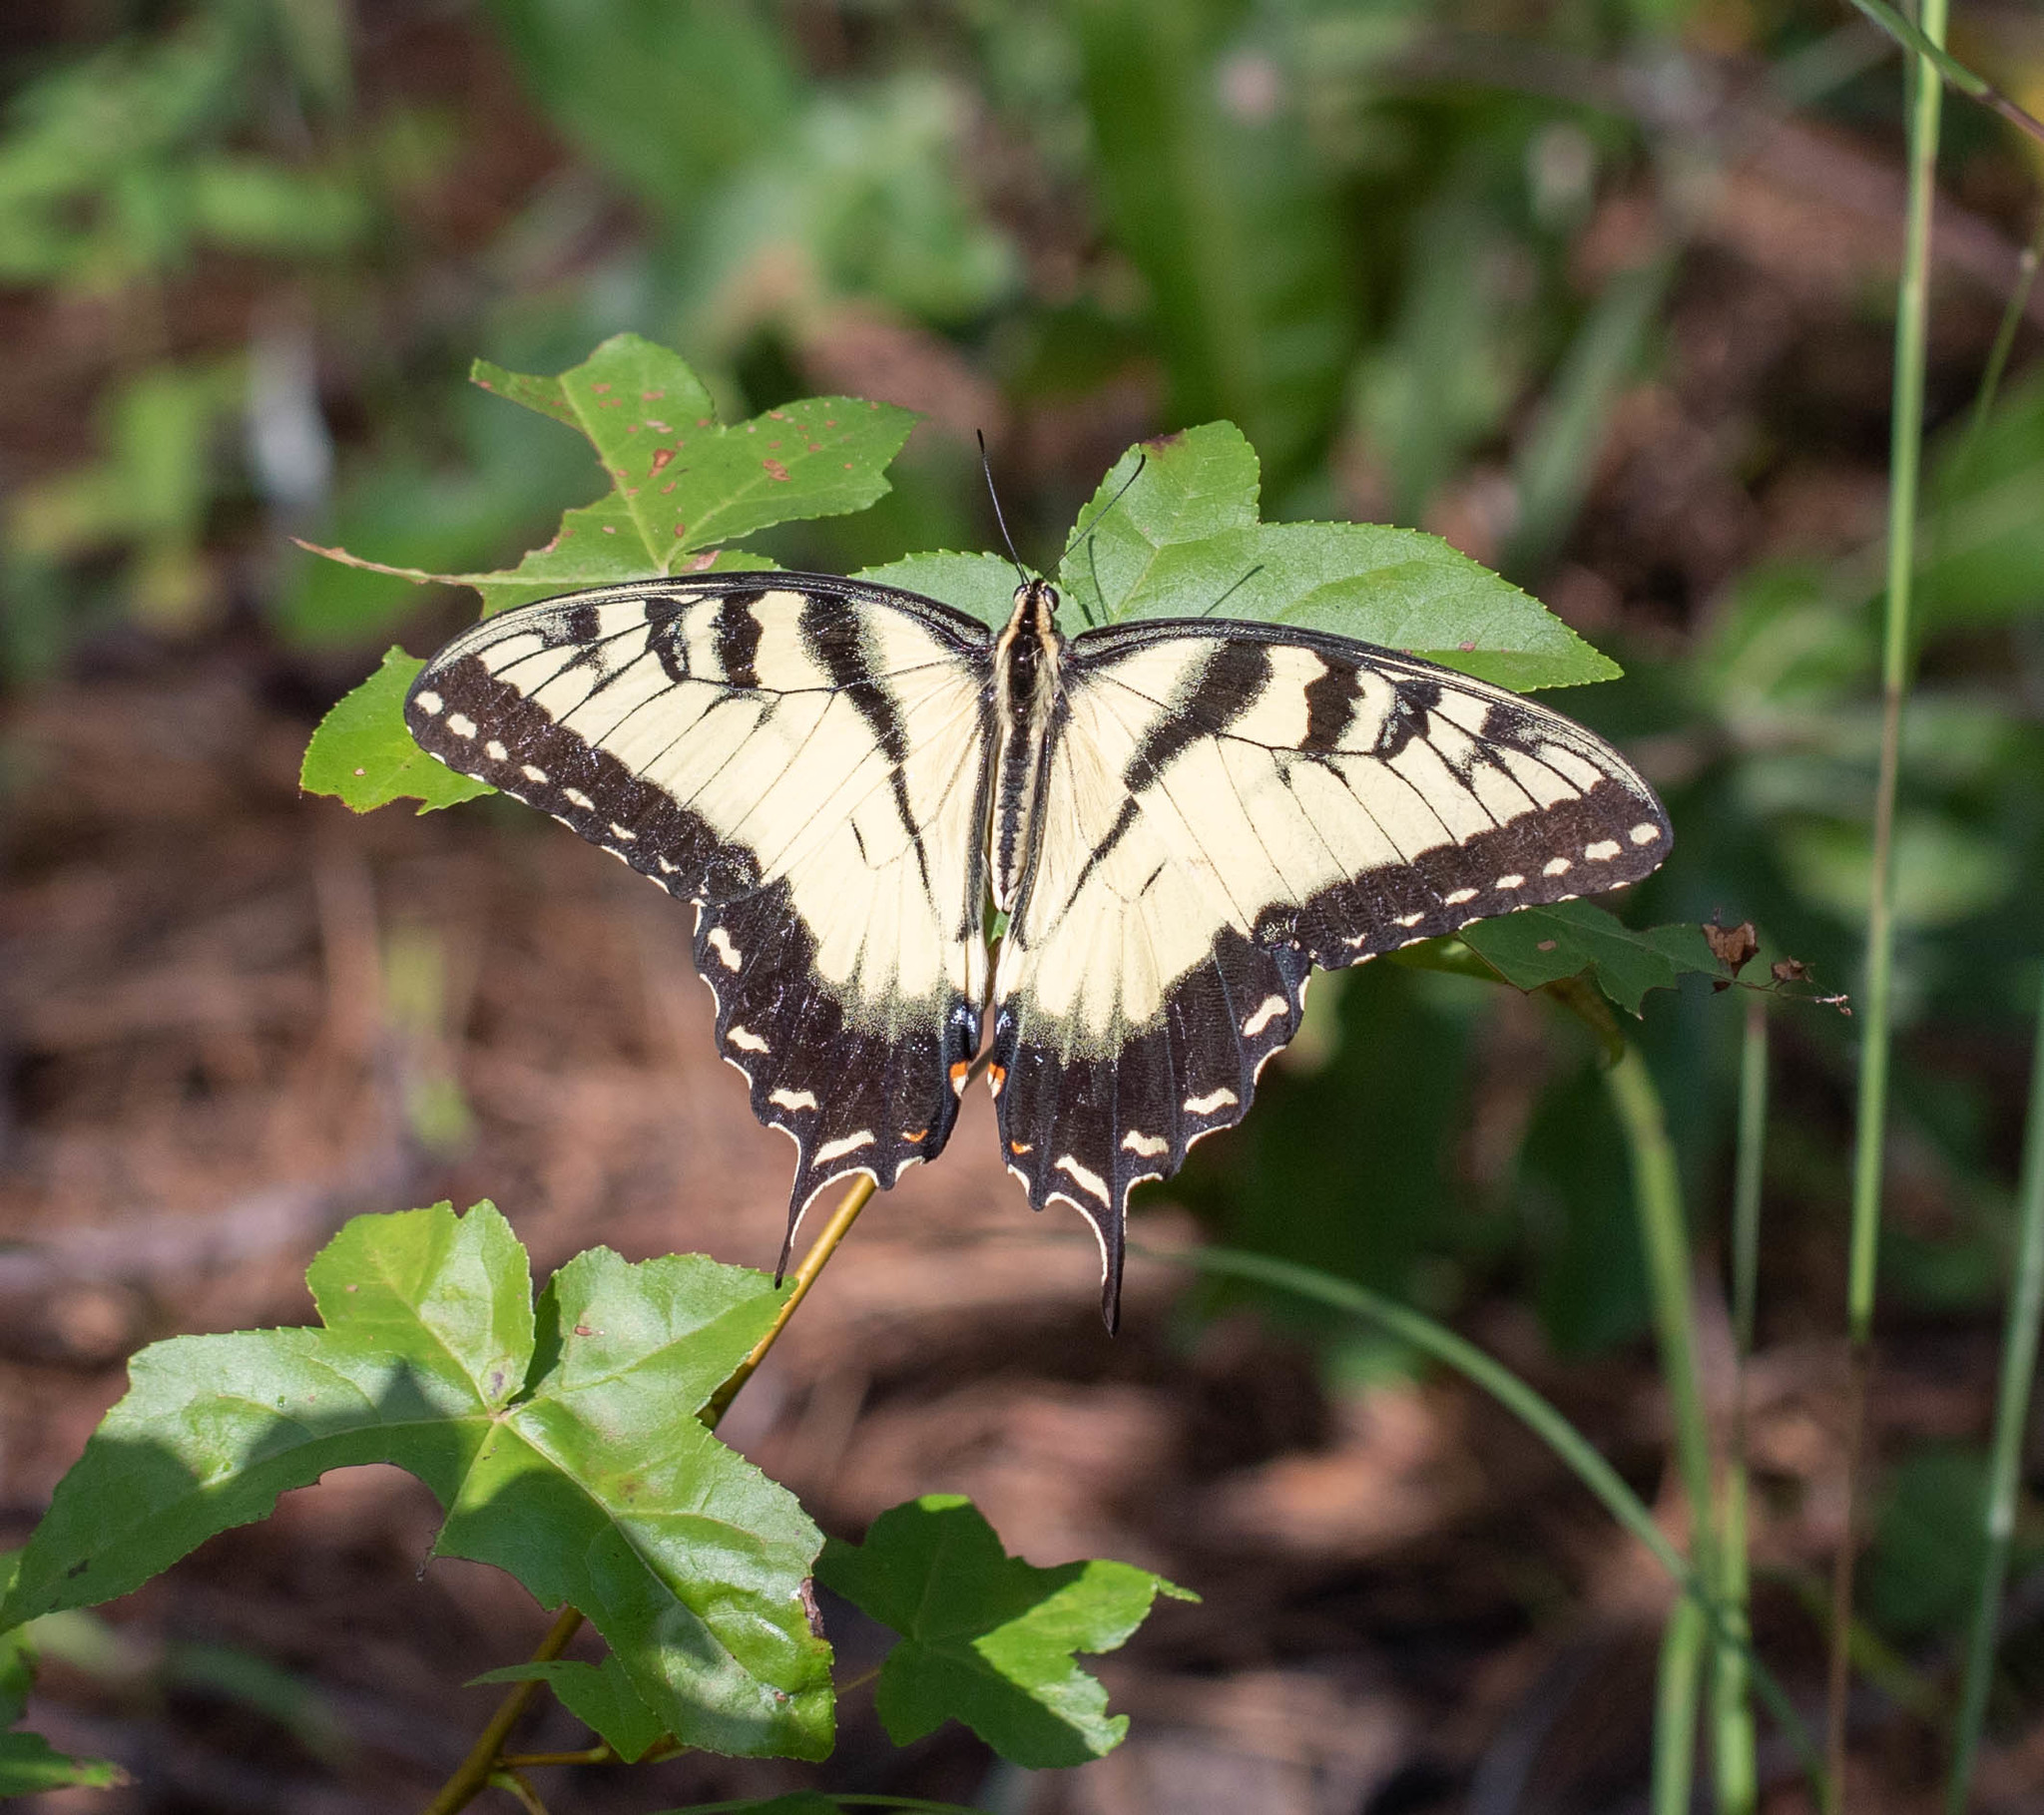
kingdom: Animalia
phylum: Arthropoda
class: Insecta
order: Lepidoptera
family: Papilionidae
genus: Papilio
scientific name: Papilio glaucus
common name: Tiger swallowtail
